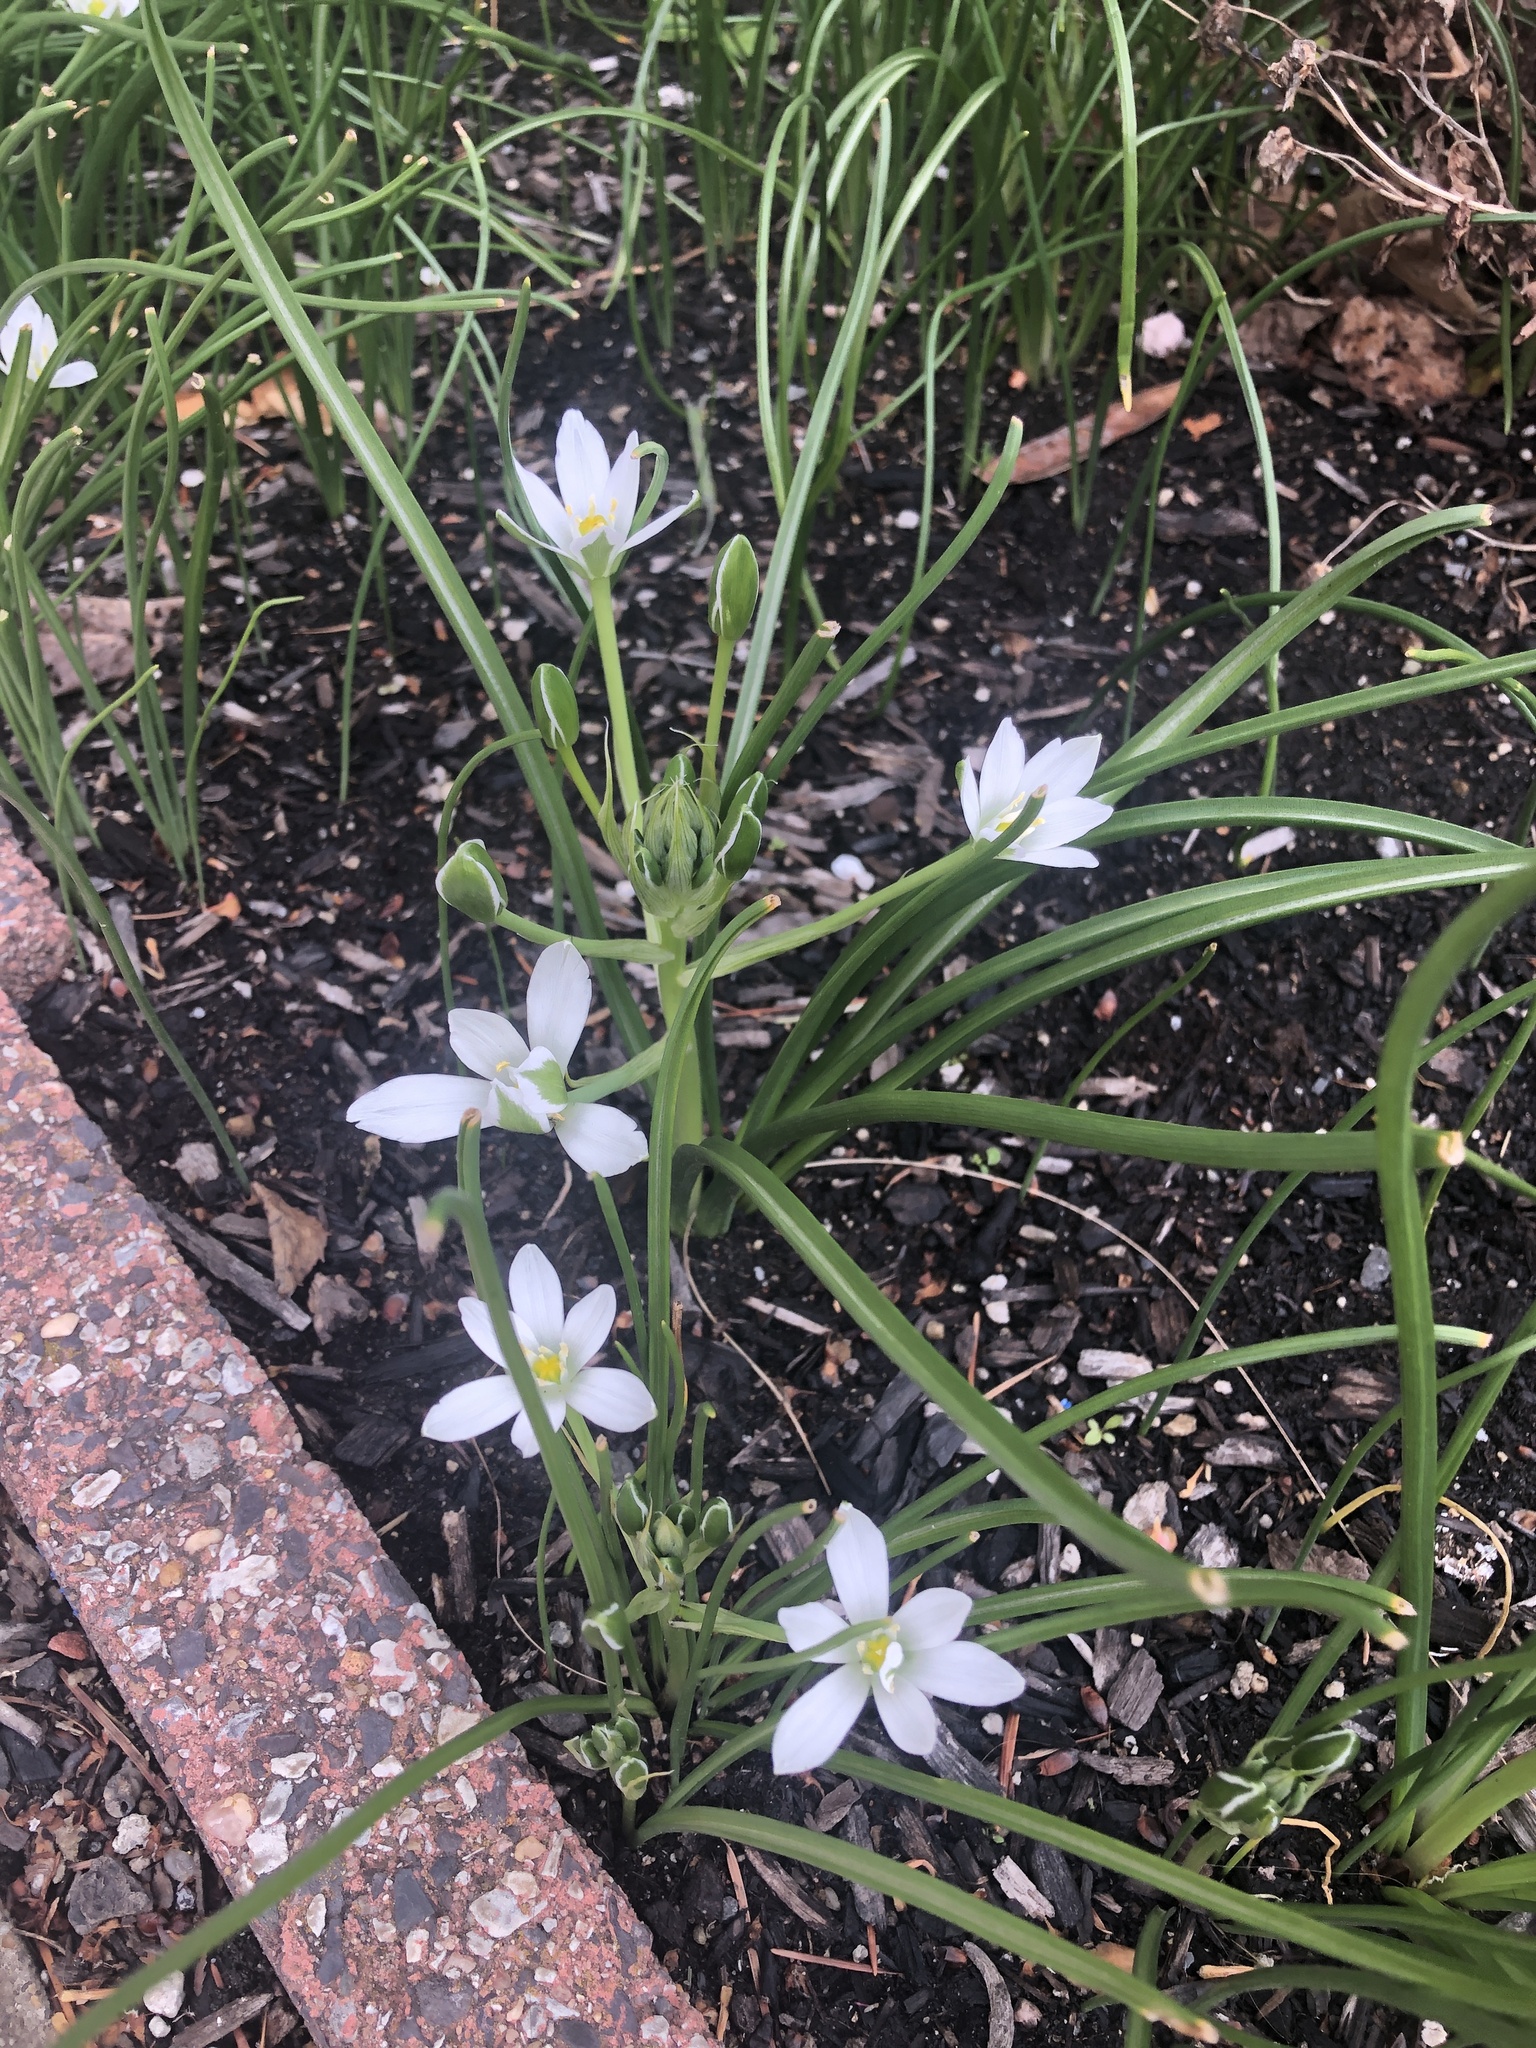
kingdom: Plantae
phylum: Tracheophyta
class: Liliopsida
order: Asparagales
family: Asparagaceae
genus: Ornithogalum
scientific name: Ornithogalum umbellatum
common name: Garden star-of-bethlehem
